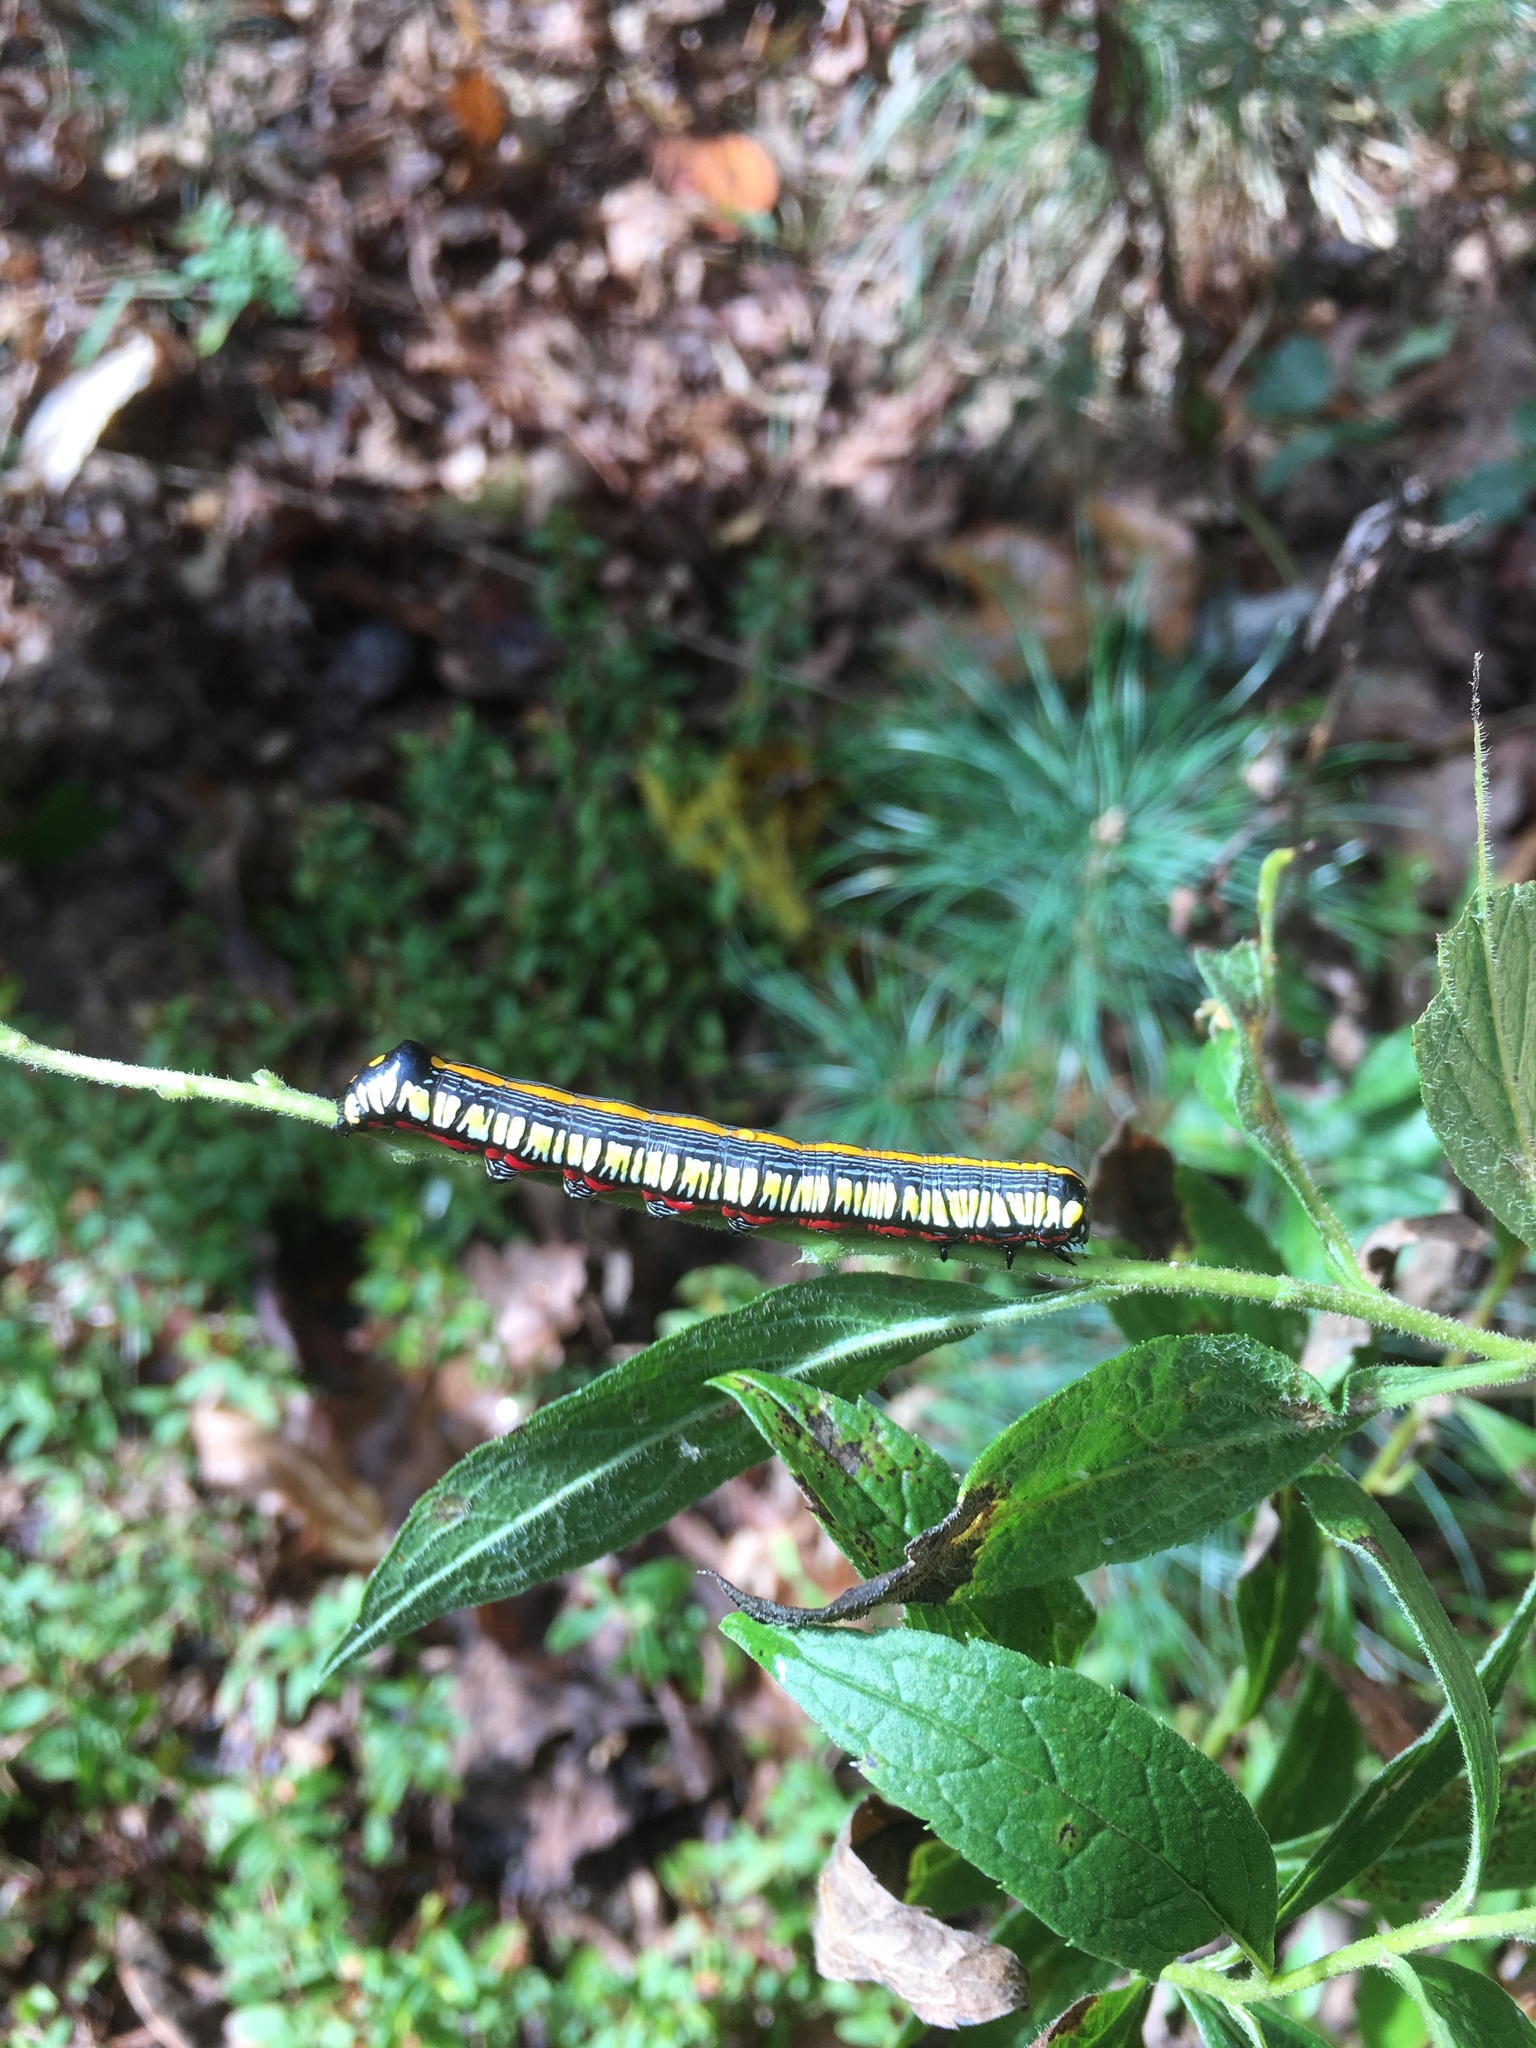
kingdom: Animalia
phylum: Arthropoda
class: Insecta
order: Lepidoptera
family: Noctuidae
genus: Cucullia
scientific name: Cucullia convexipennis
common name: Brown-hooded owlet
